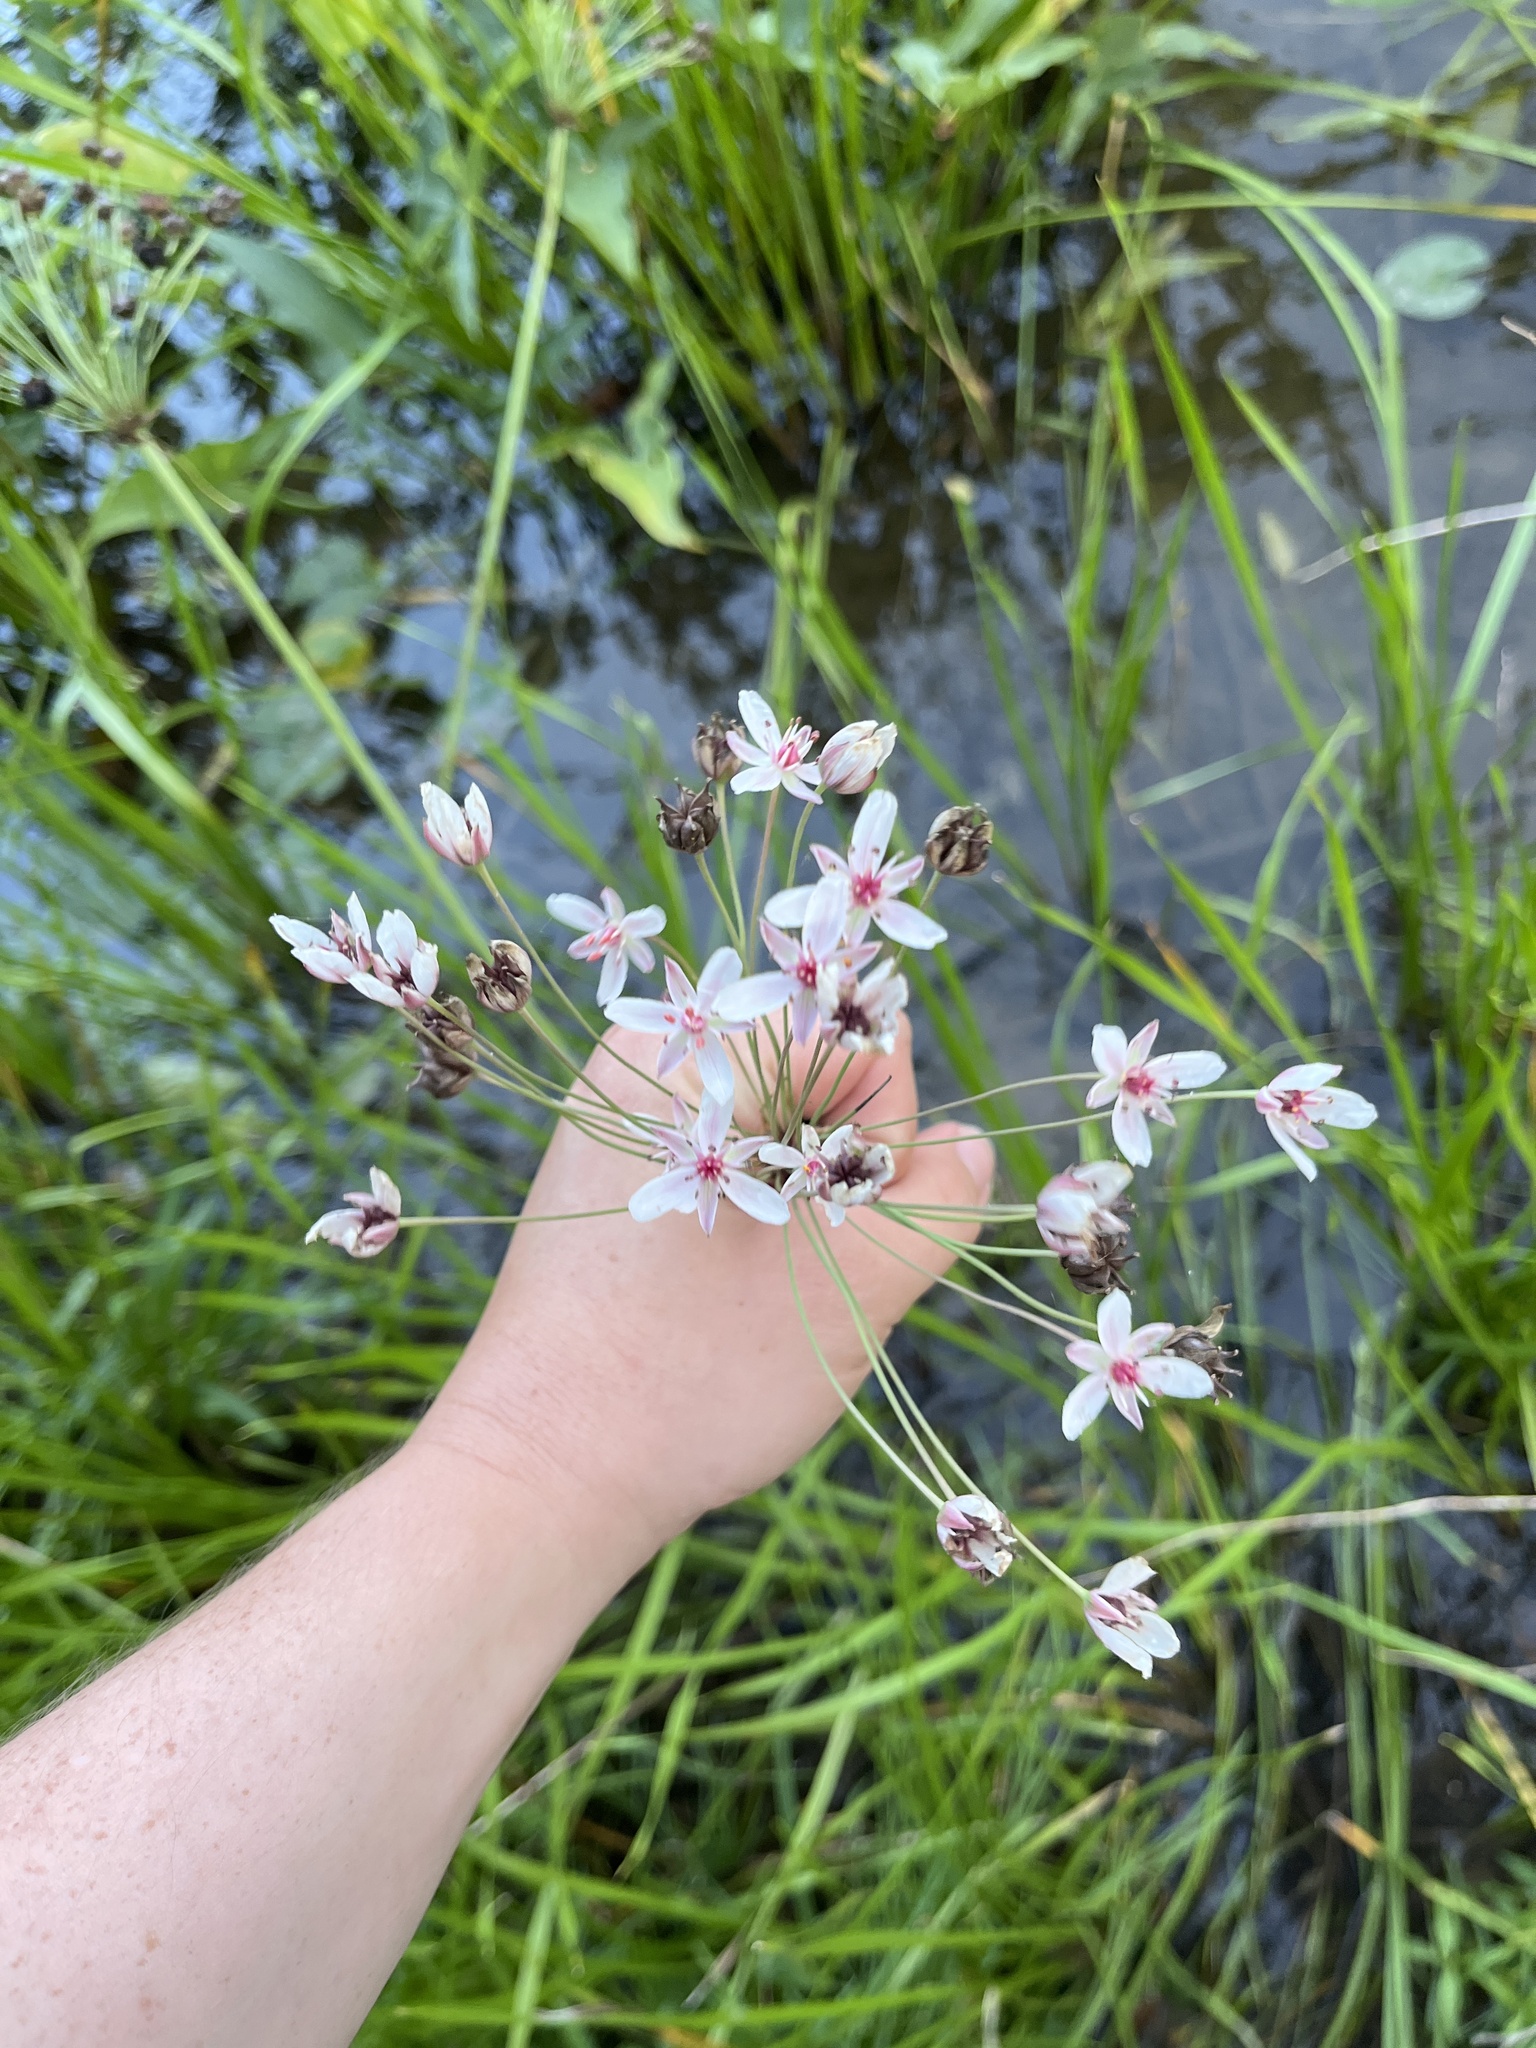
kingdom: Plantae
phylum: Tracheophyta
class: Liliopsida
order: Alismatales
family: Butomaceae
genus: Butomus
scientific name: Butomus umbellatus
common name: Flowering-rush
